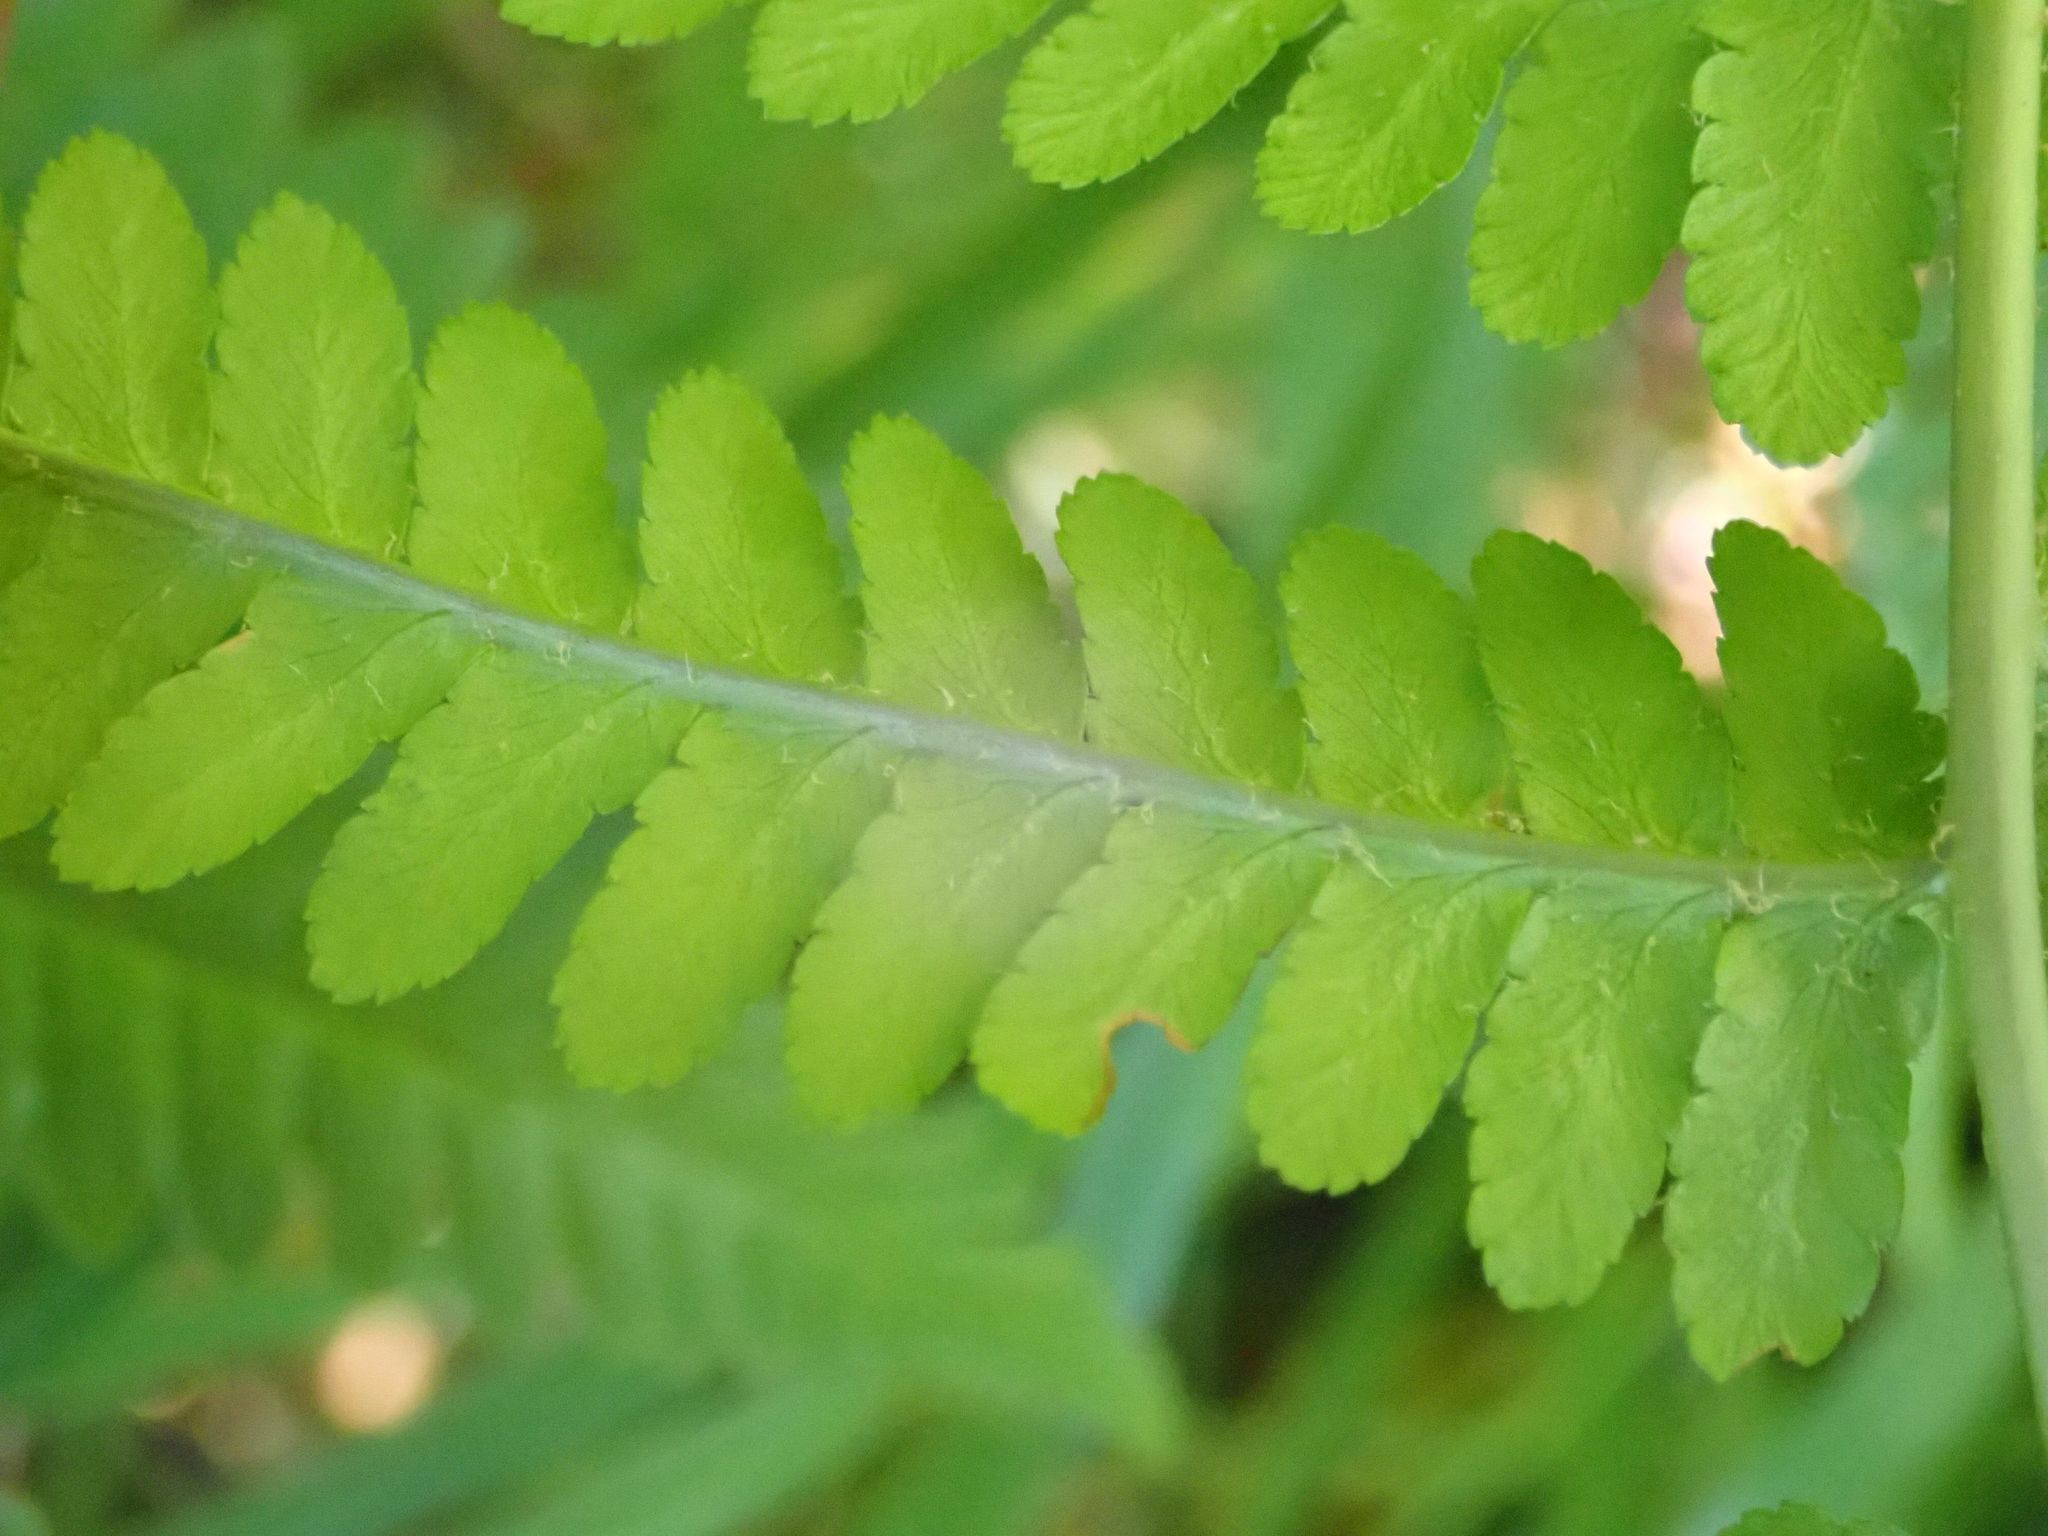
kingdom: Plantae
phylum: Tracheophyta
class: Polypodiopsida
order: Polypodiales
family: Dryopteridaceae
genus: Dryopteris
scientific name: Dryopteris filix-mas
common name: Male fern
